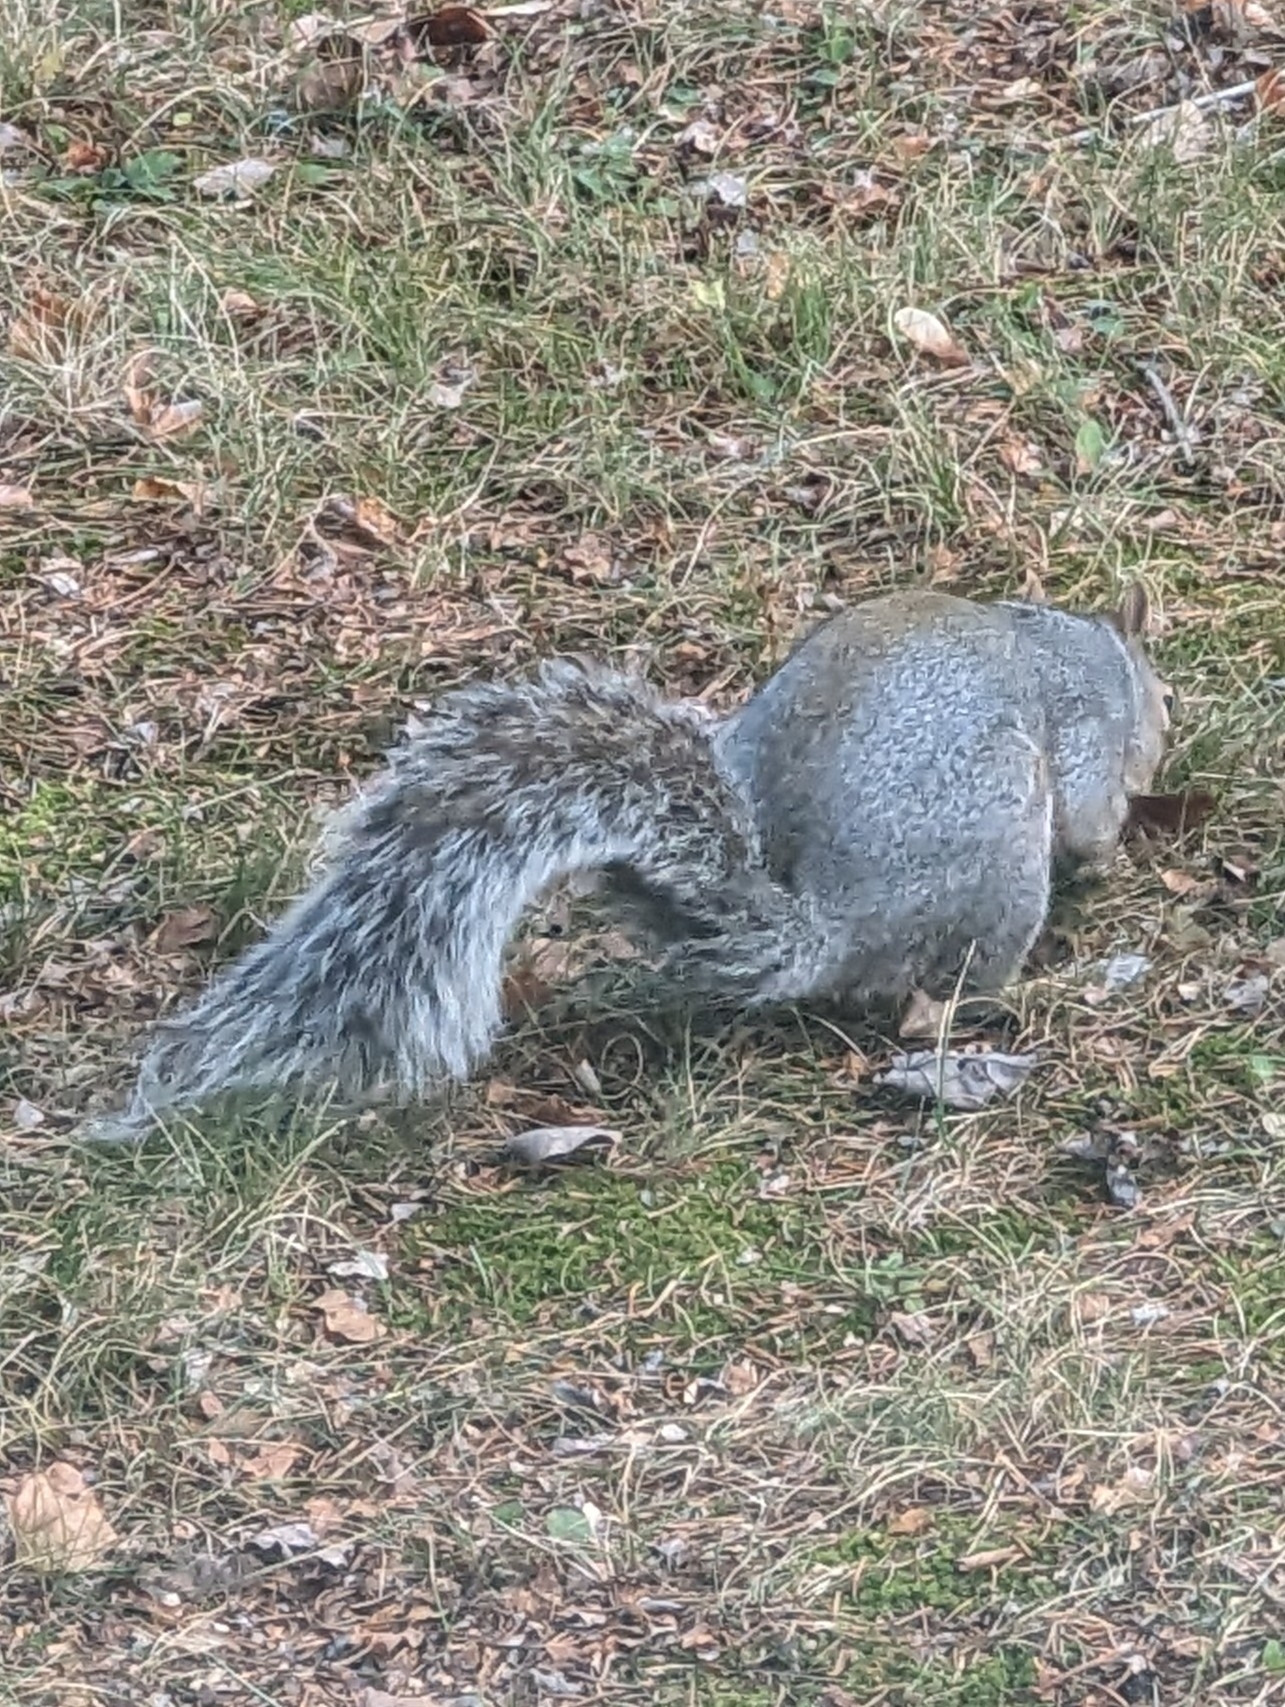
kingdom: Animalia
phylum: Chordata
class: Mammalia
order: Rodentia
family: Sciuridae
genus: Sciurus
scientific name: Sciurus carolinensis
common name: Eastern gray squirrel
